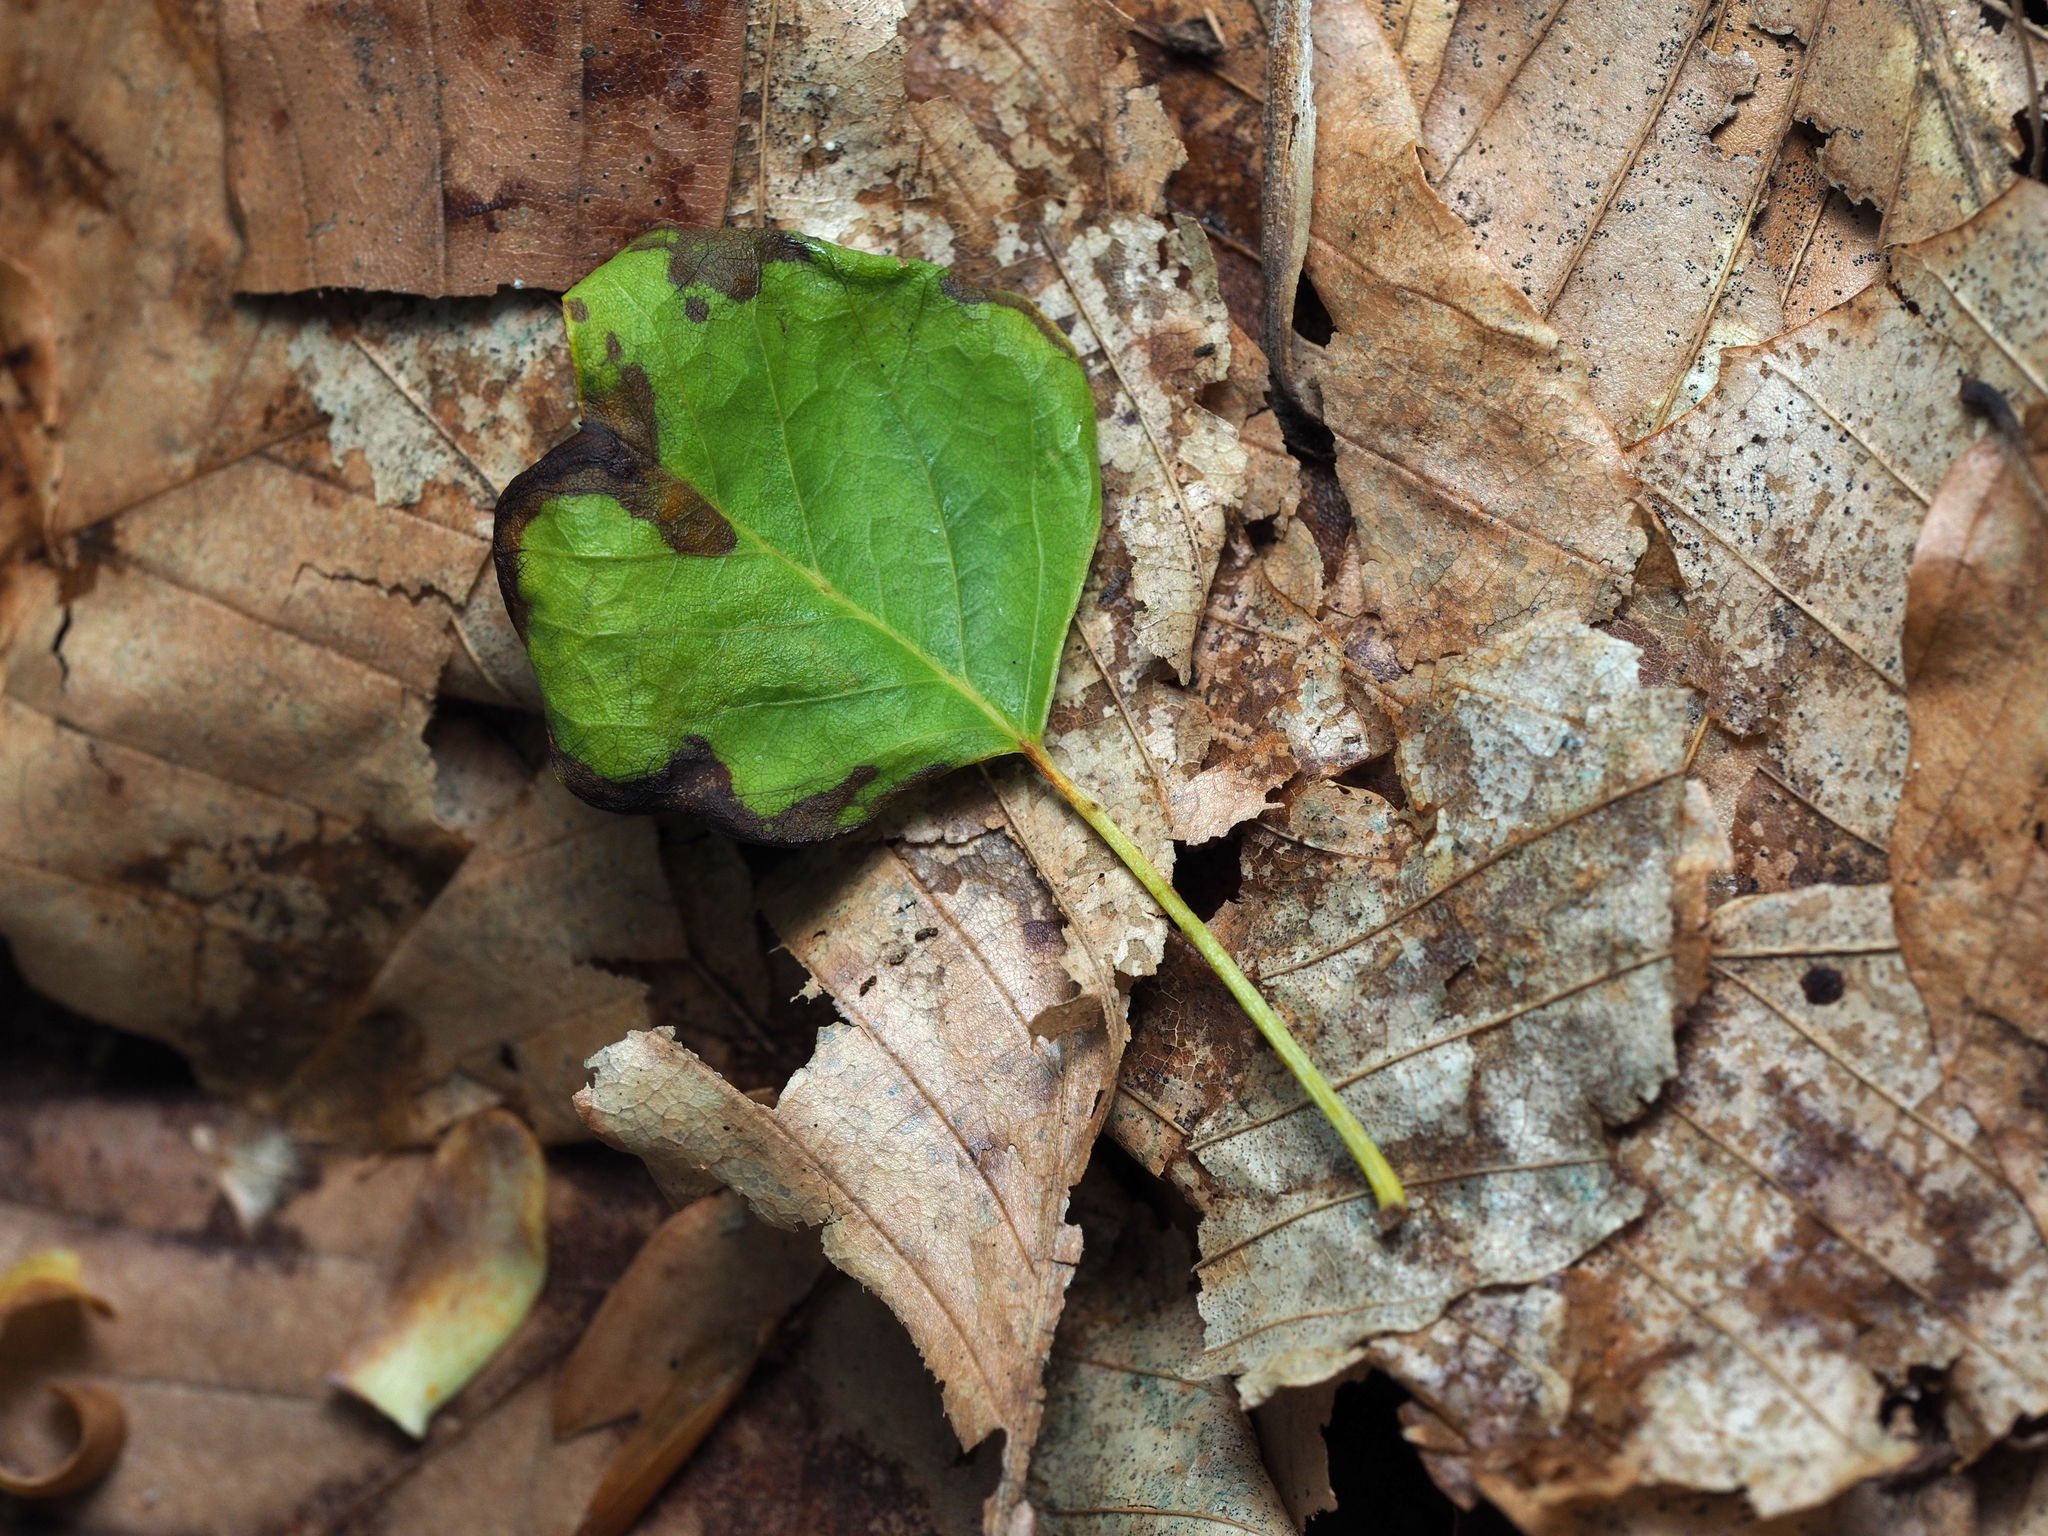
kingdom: Plantae
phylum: Tracheophyta
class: Magnoliopsida
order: Magnoliales
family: Magnoliaceae
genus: Liriodendron
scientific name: Liriodendron tulipifera
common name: Tulip tree
